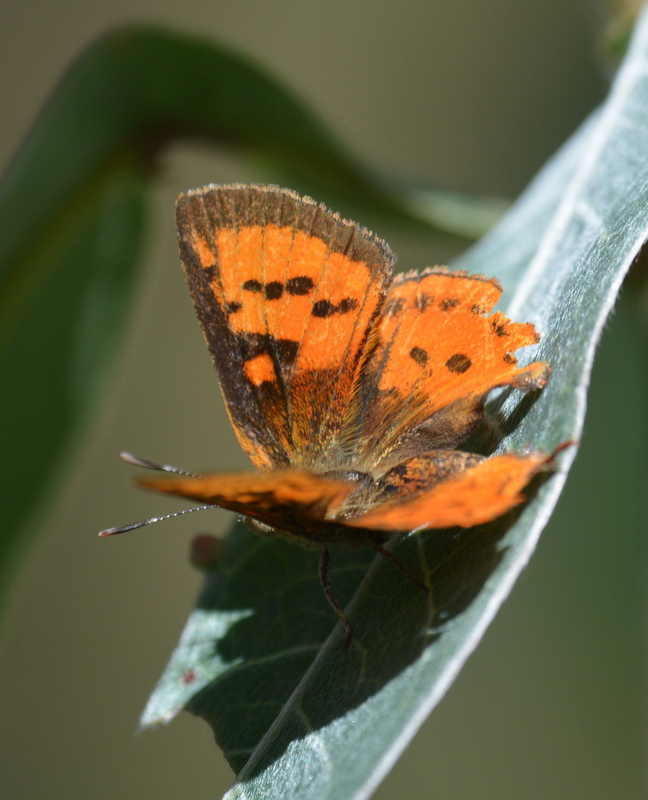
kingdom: Animalia
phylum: Arthropoda
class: Insecta
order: Lepidoptera
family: Lycaenidae
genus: Axiocerses
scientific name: Axiocerses perion
